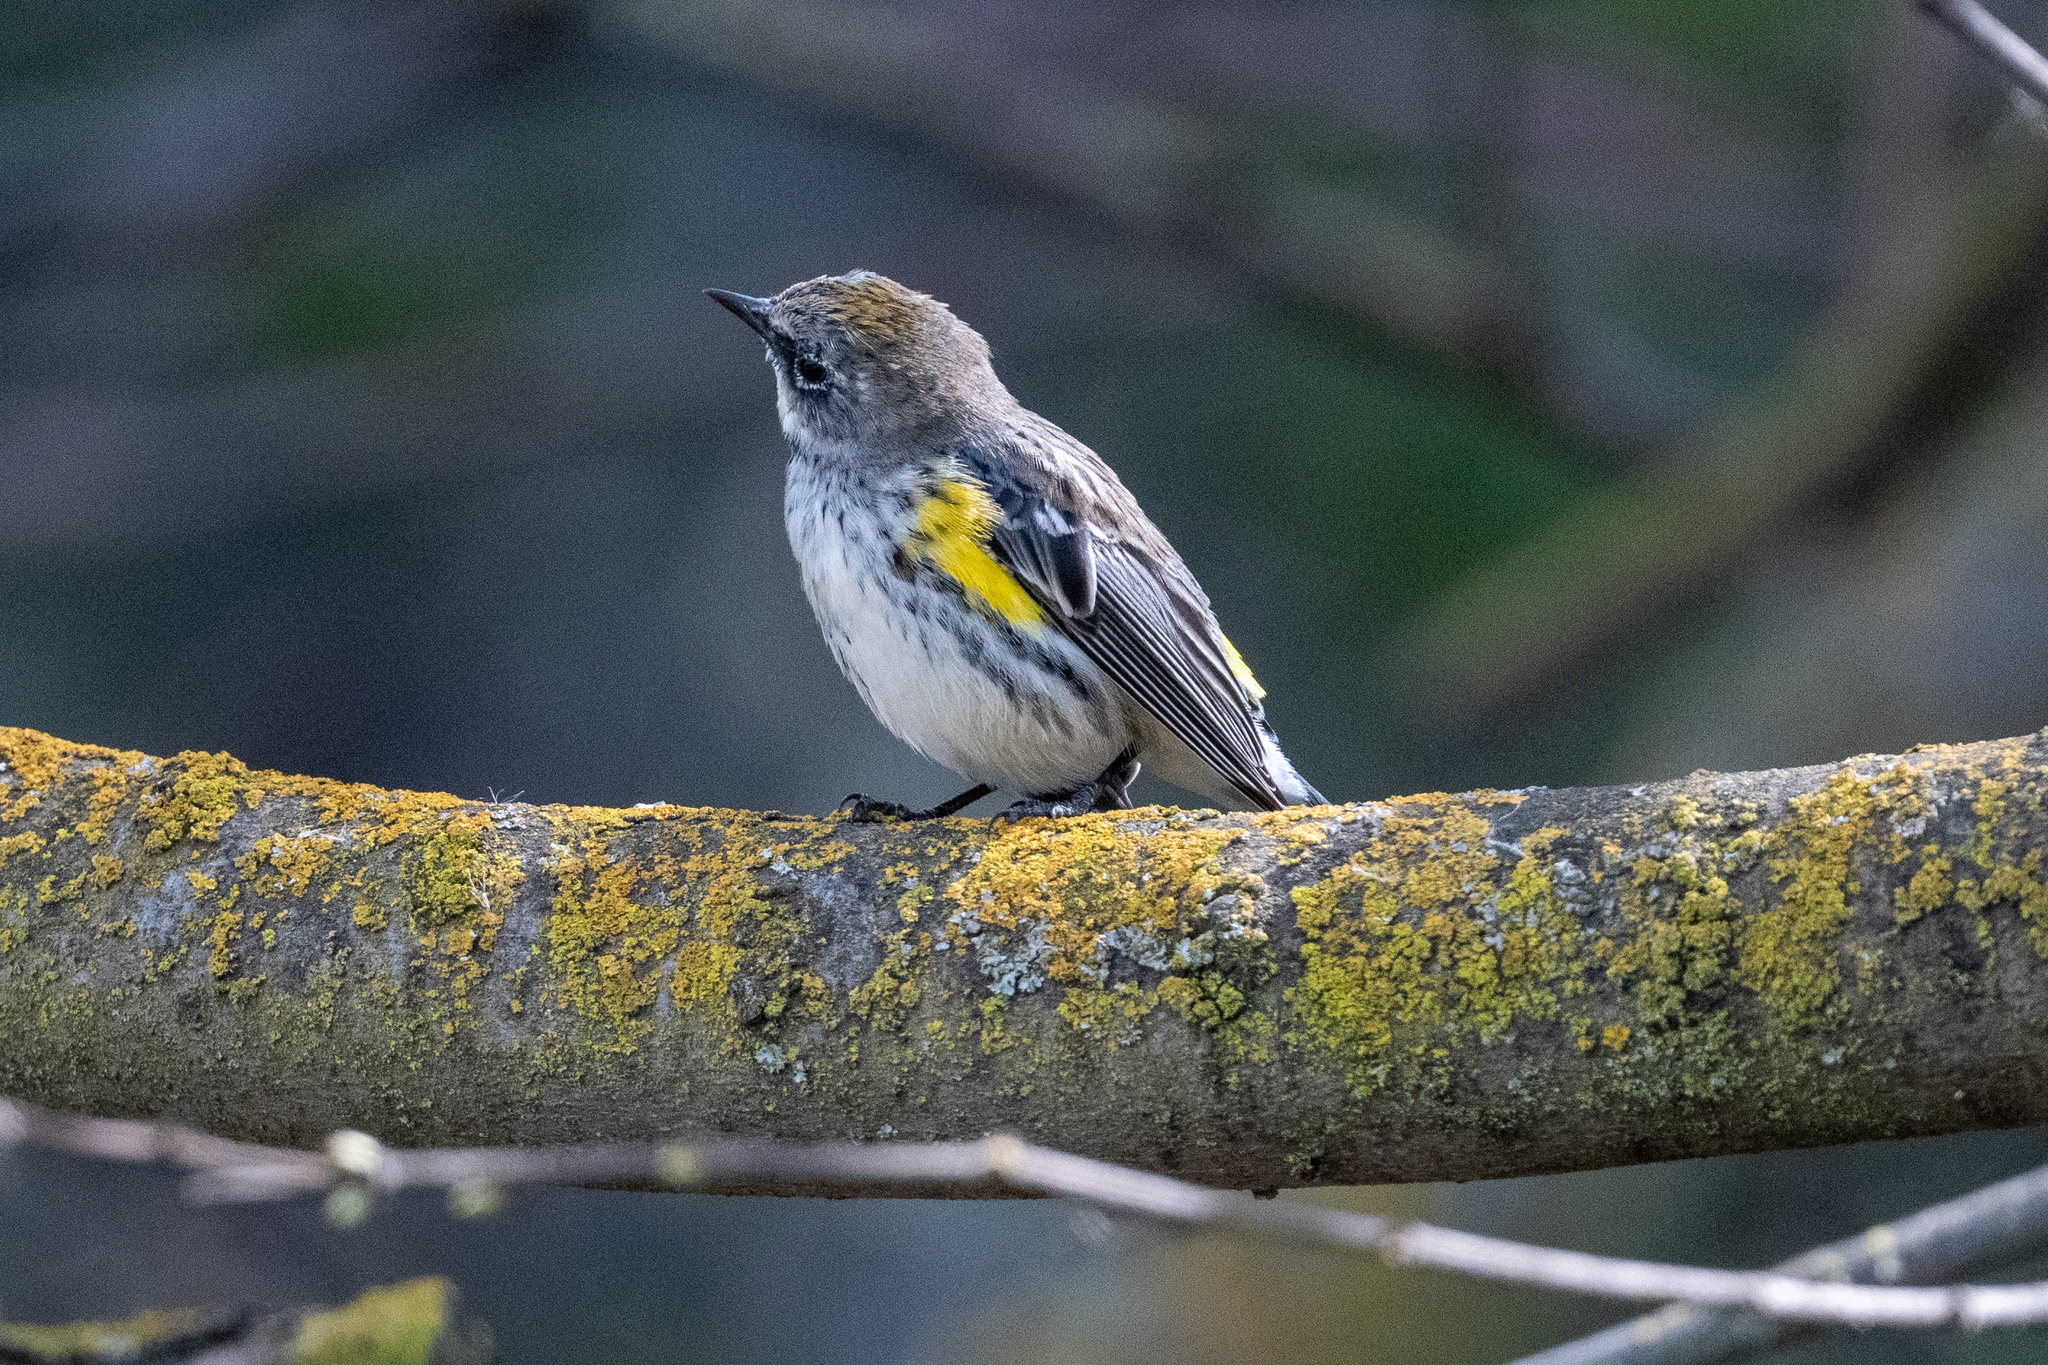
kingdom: Animalia
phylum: Chordata
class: Aves
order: Passeriformes
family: Parulidae
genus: Setophaga
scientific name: Setophaga coronata
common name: Myrtle warbler
